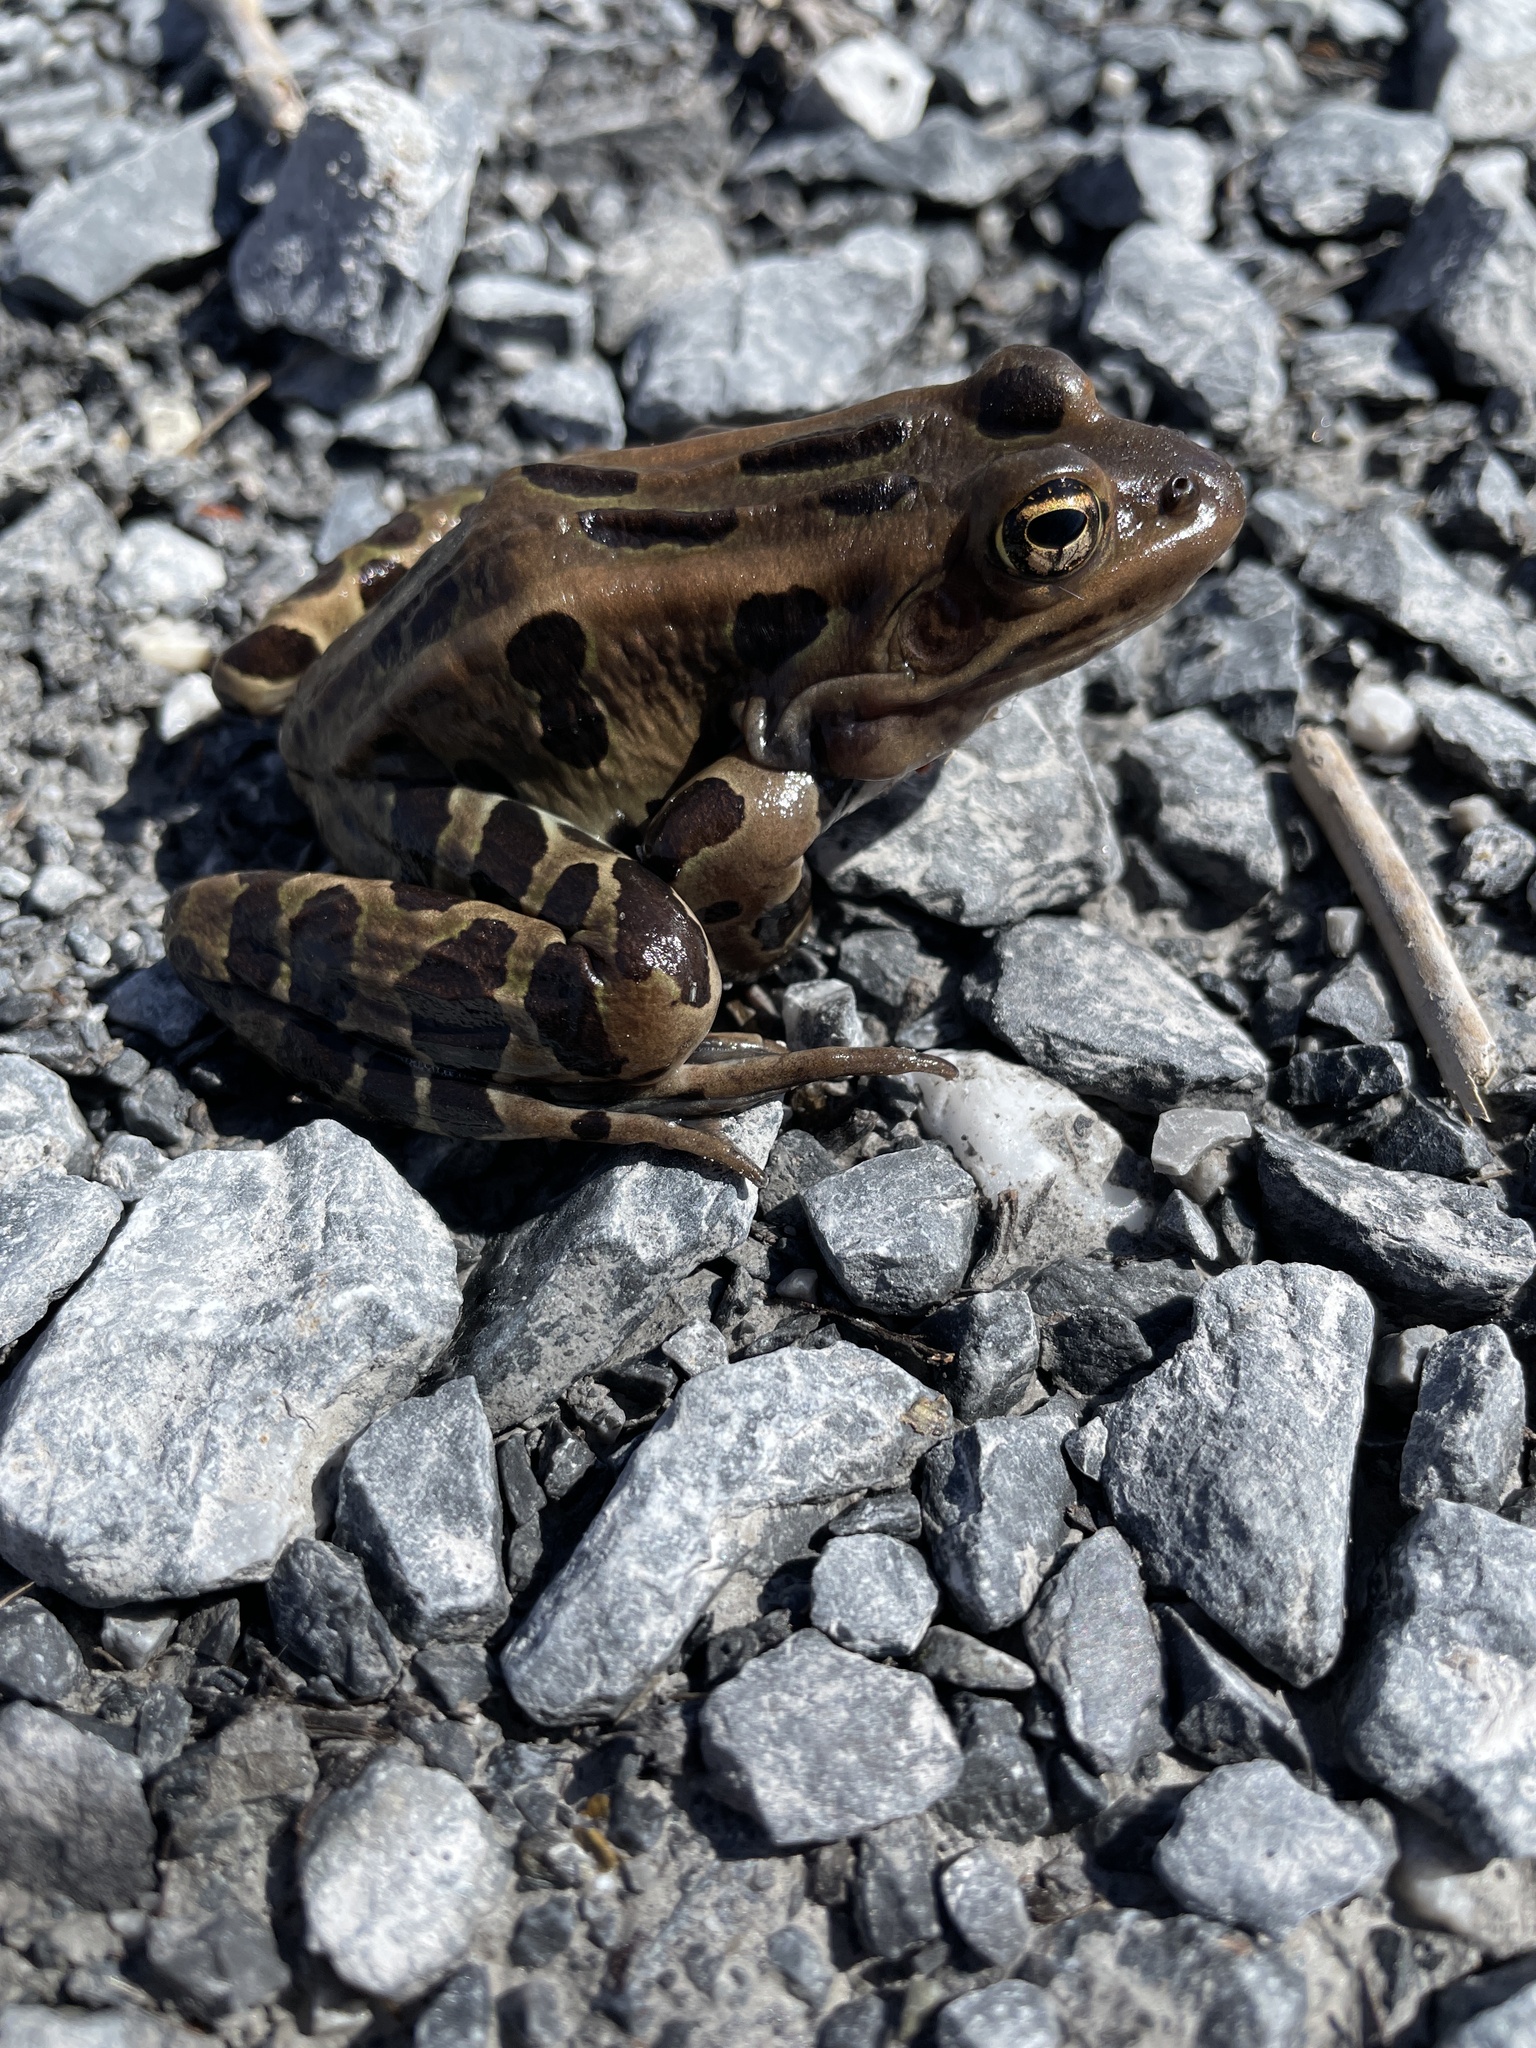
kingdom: Animalia
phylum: Chordata
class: Amphibia
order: Anura
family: Ranidae
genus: Lithobates
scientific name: Lithobates pipiens
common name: Northern leopard frog
